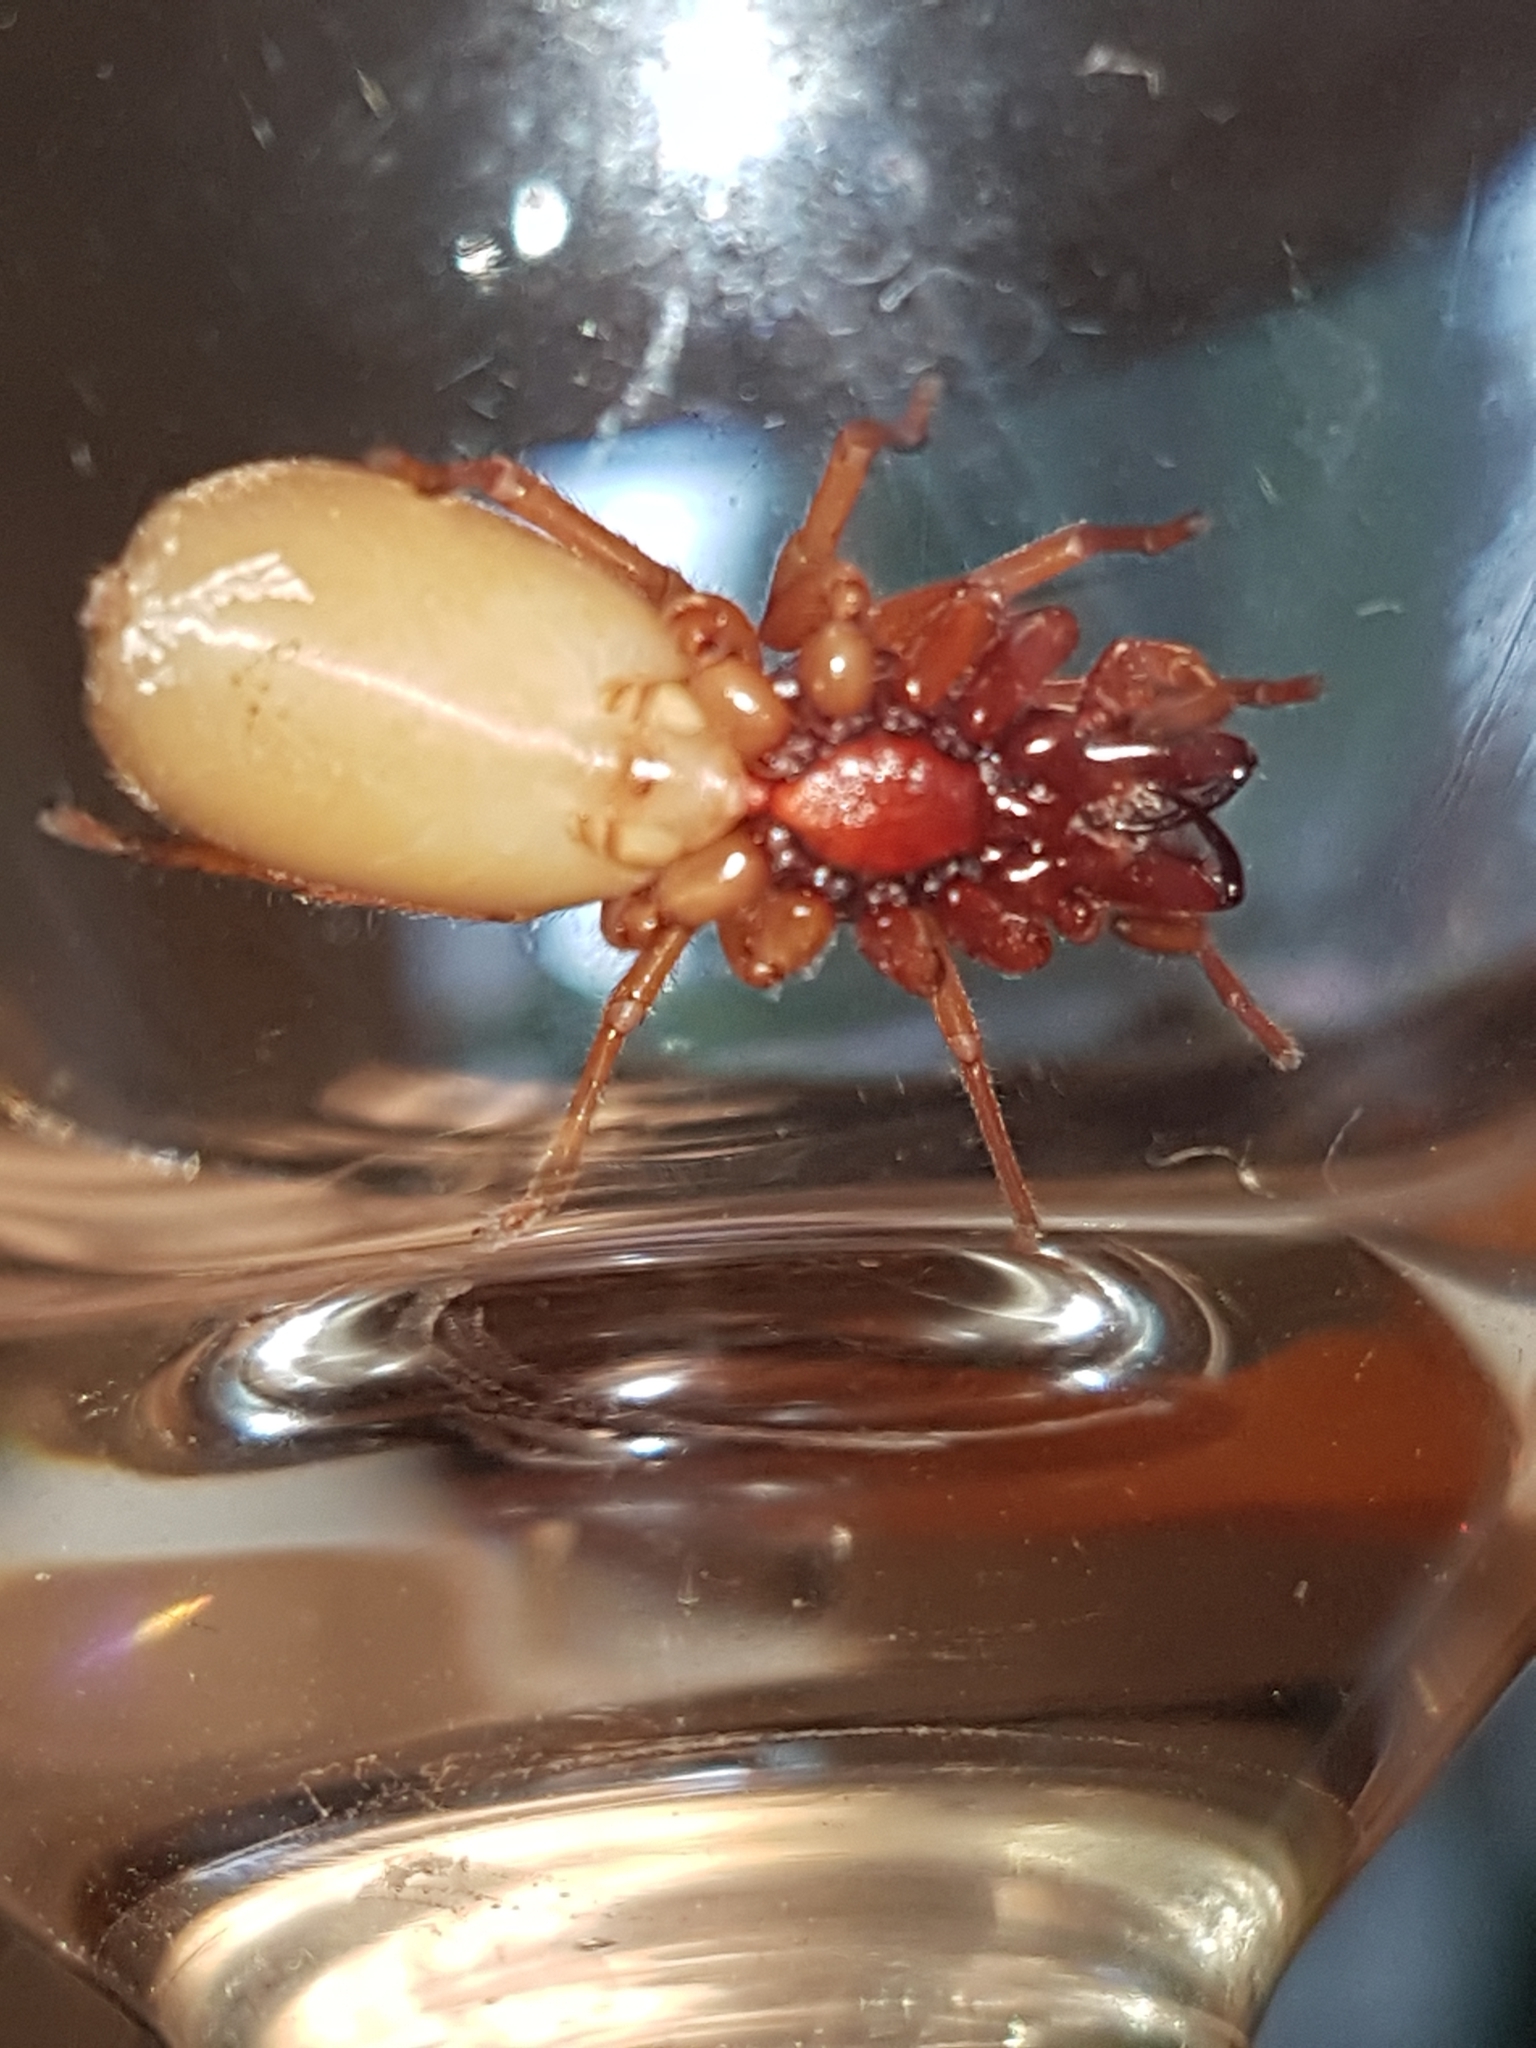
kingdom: Animalia
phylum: Arthropoda
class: Arachnida
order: Araneae
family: Dysderidae
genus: Dysdera
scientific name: Dysdera crocata
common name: Woodlouse spider
